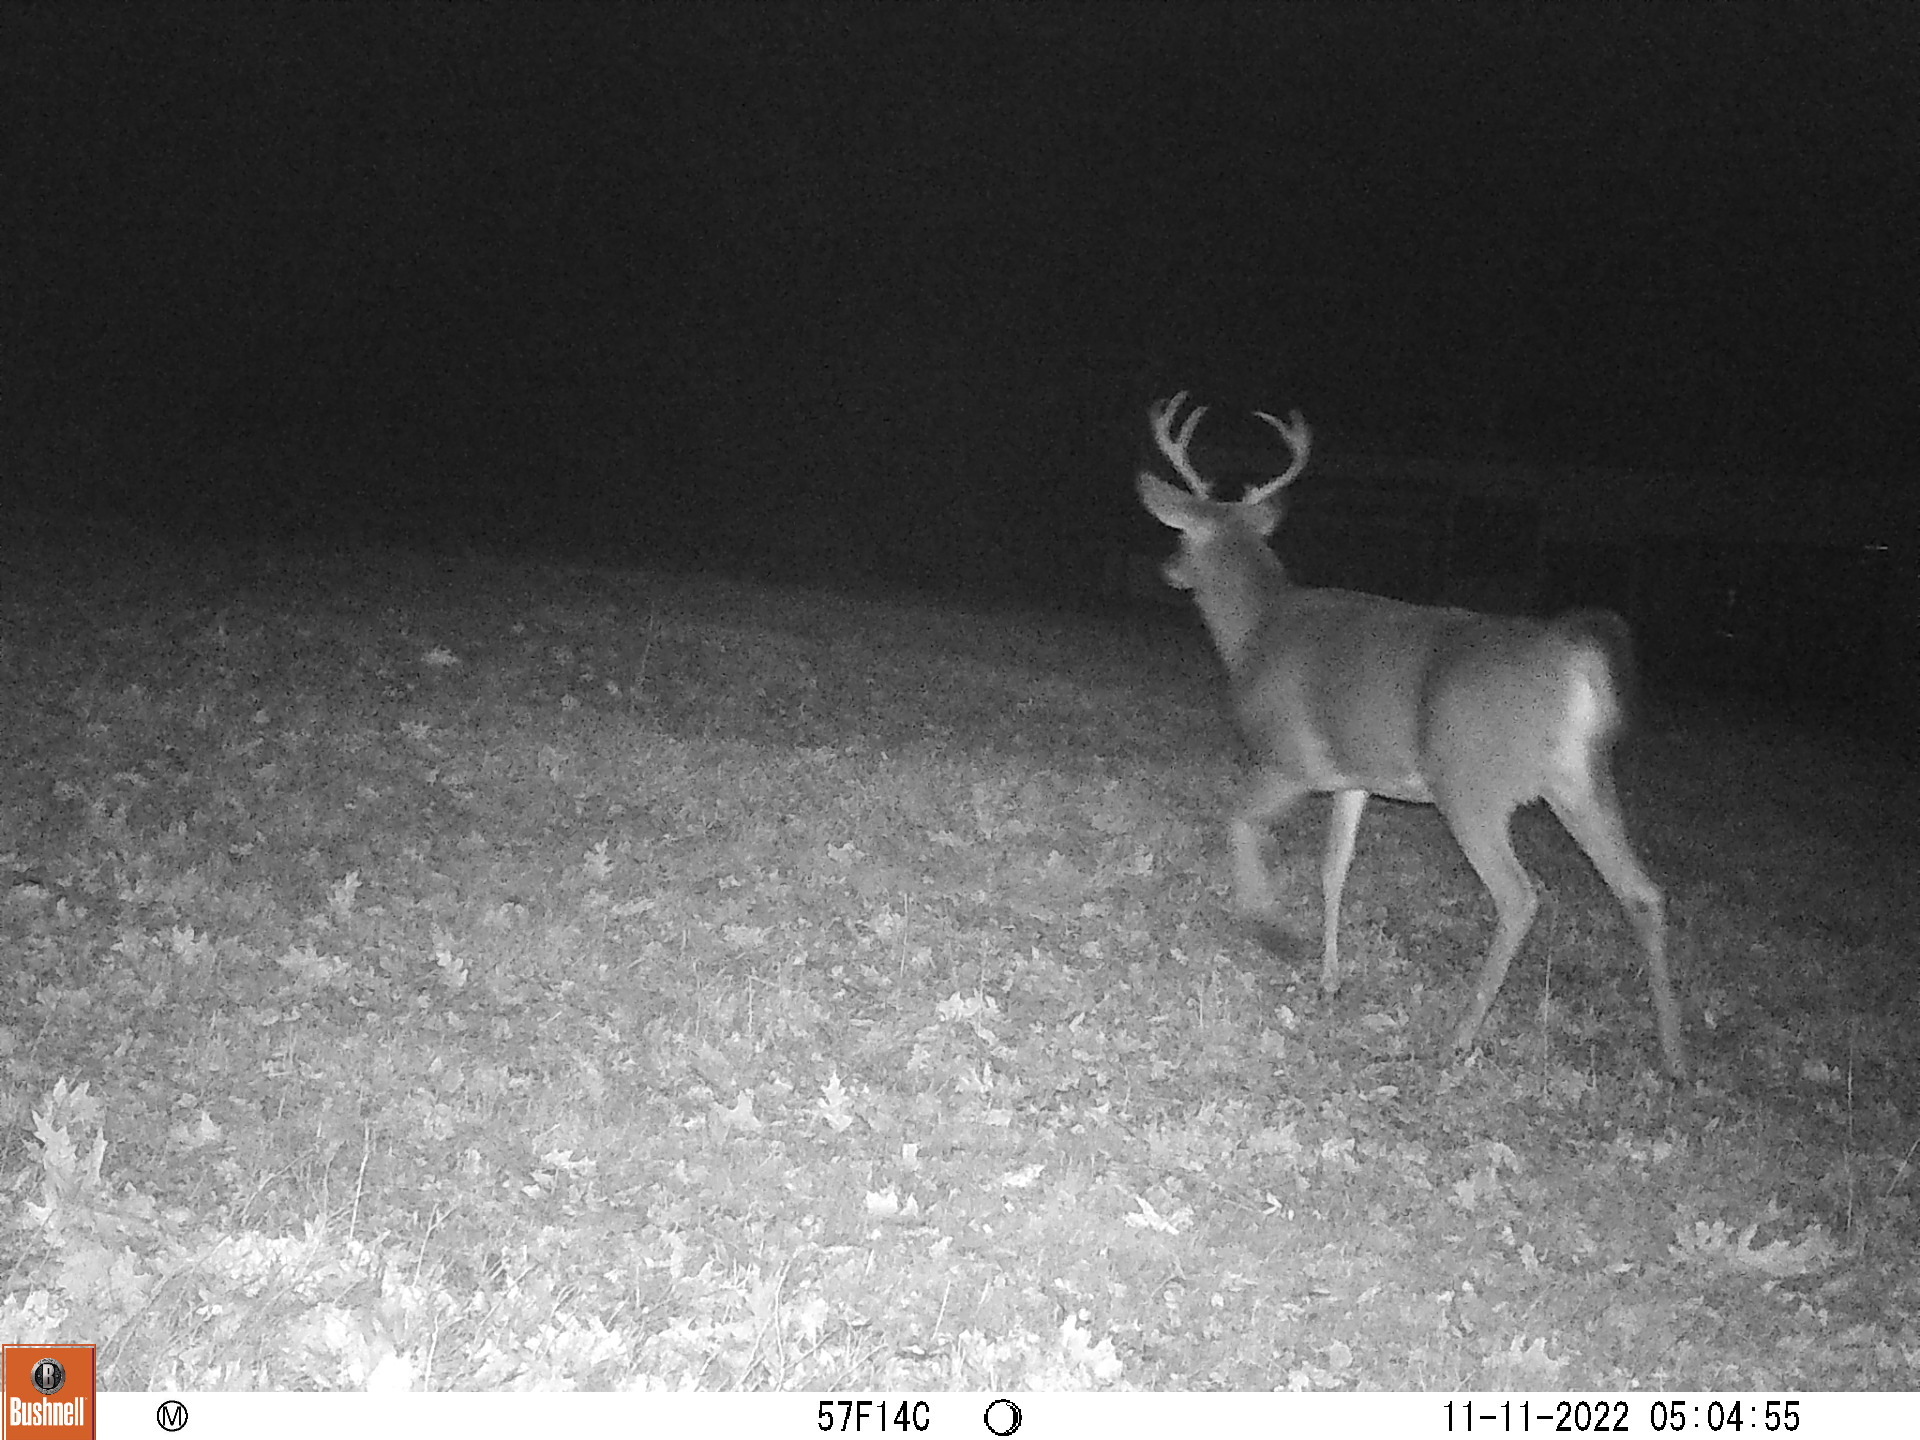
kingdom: Animalia
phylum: Chordata
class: Mammalia
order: Artiodactyla
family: Cervidae
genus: Odocoileus
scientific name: Odocoileus virginianus
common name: White-tailed deer
